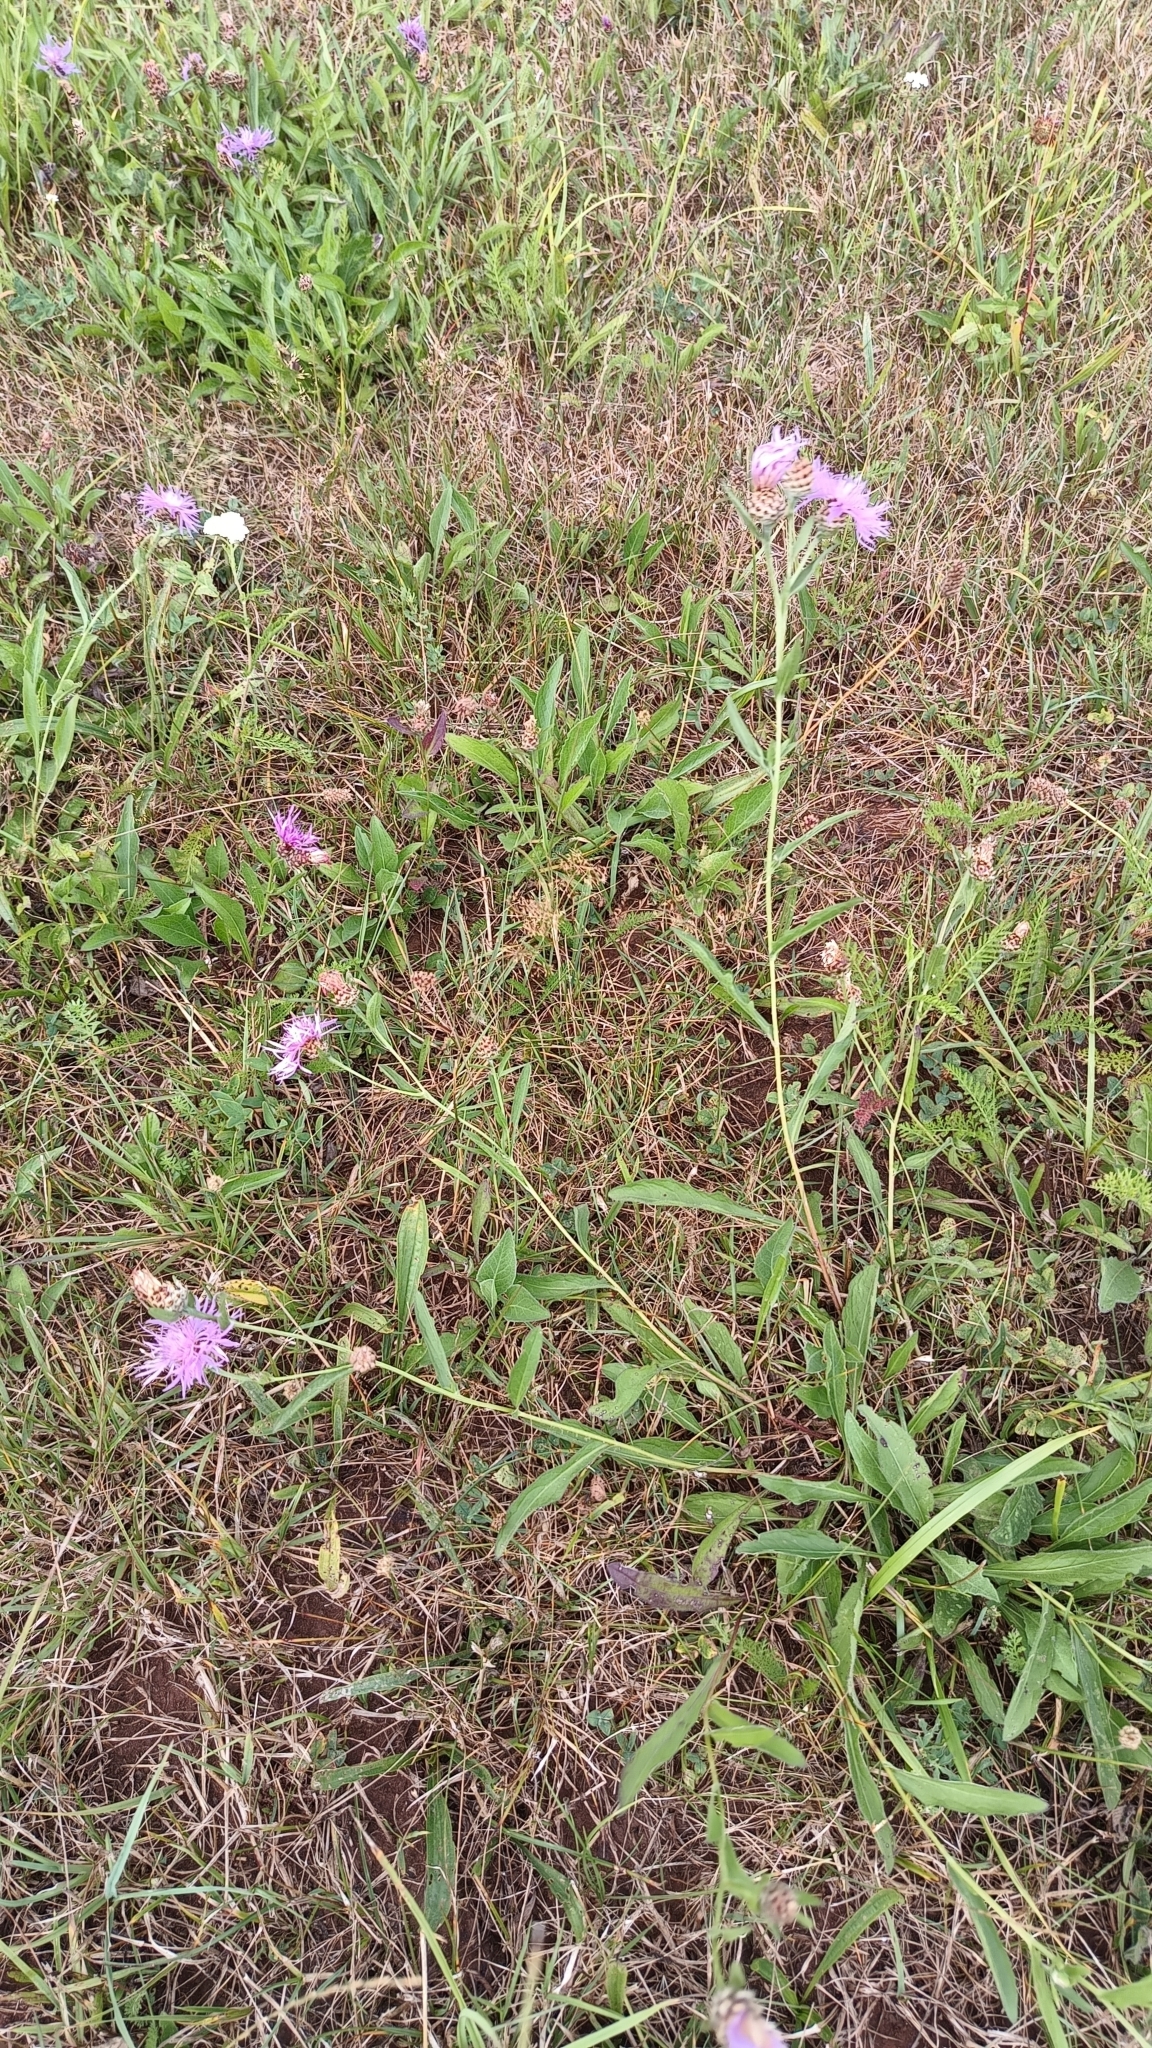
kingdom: Plantae
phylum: Tracheophyta
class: Magnoliopsida
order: Asterales
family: Asteraceae
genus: Centaurea
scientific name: Centaurea jacea
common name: Brown knapweed
